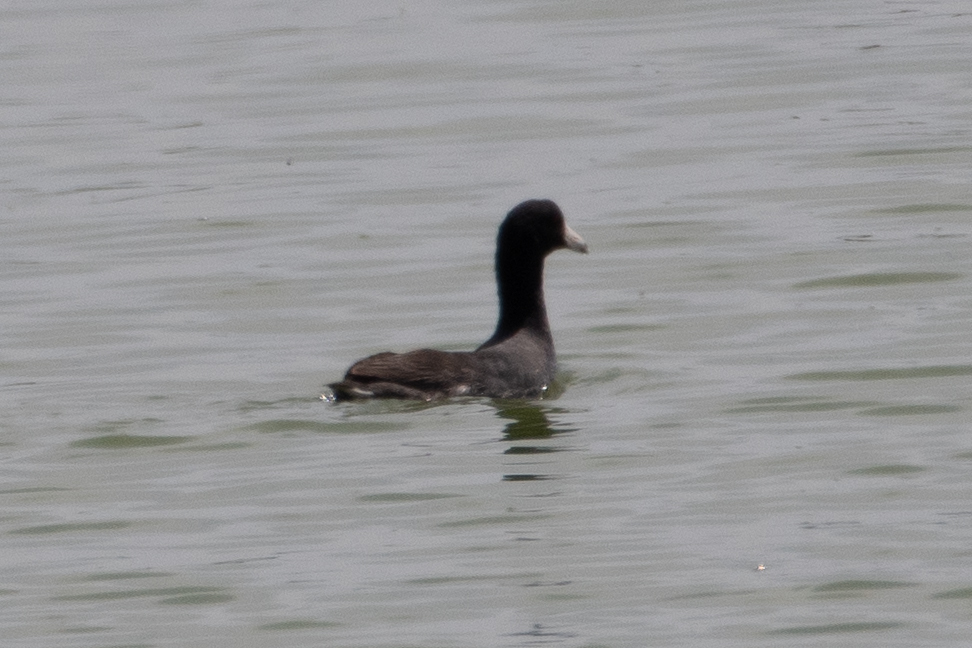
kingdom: Animalia
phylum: Chordata
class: Aves
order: Gruiformes
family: Rallidae
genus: Fulica
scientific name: Fulica americana
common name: American coot
